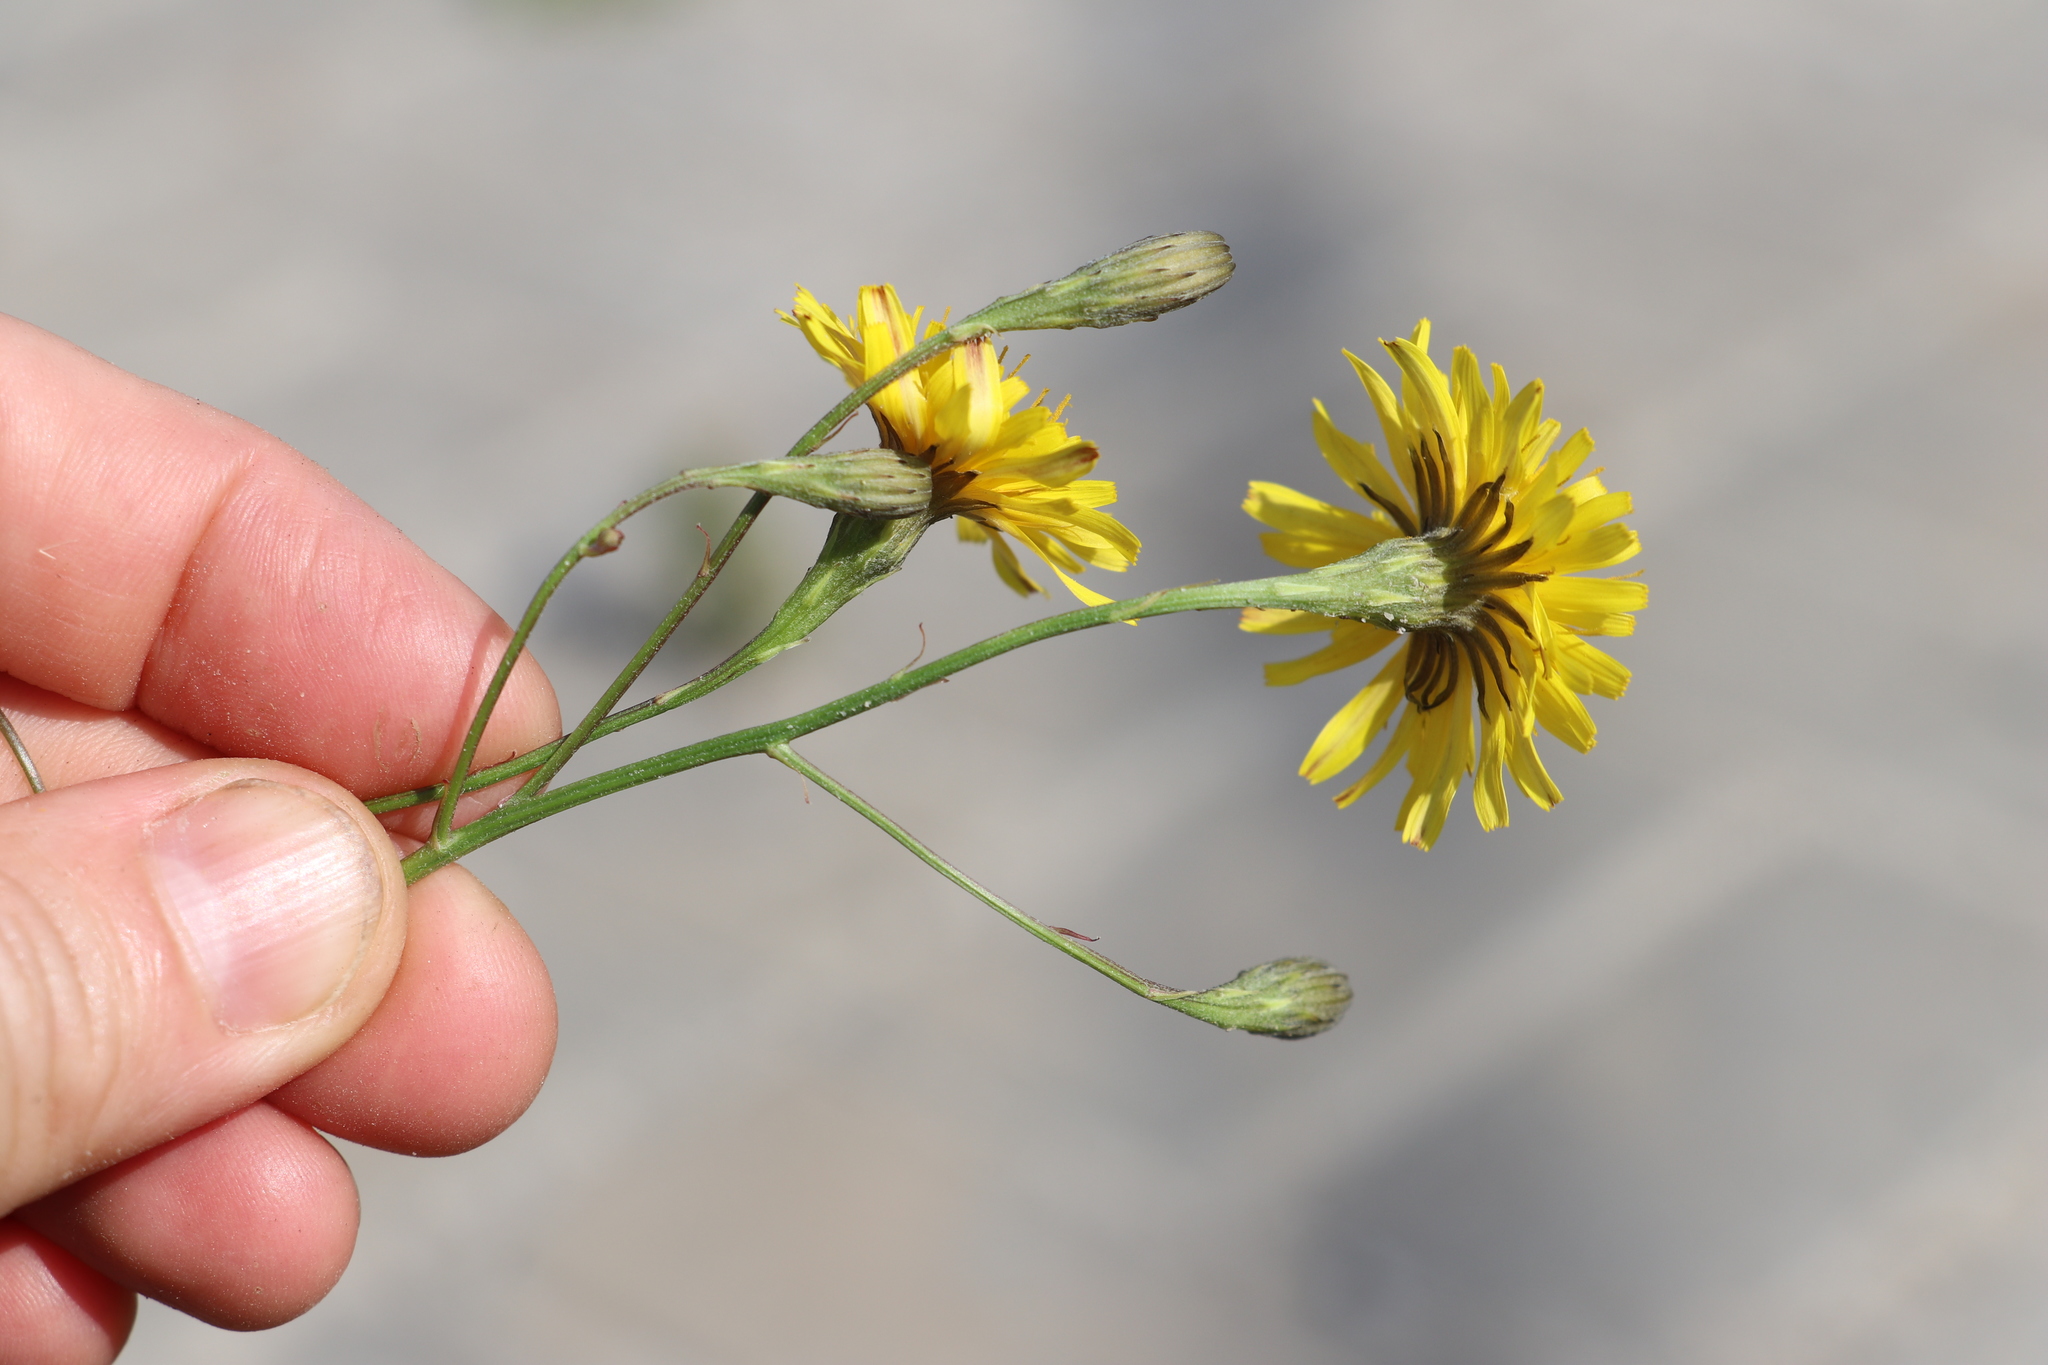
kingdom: Plantae
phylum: Tracheophyta
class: Magnoliopsida
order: Asterales
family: Asteraceae
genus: Scorzoneroides
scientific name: Scorzoneroides autumnalis
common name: Autumn hawkbit
